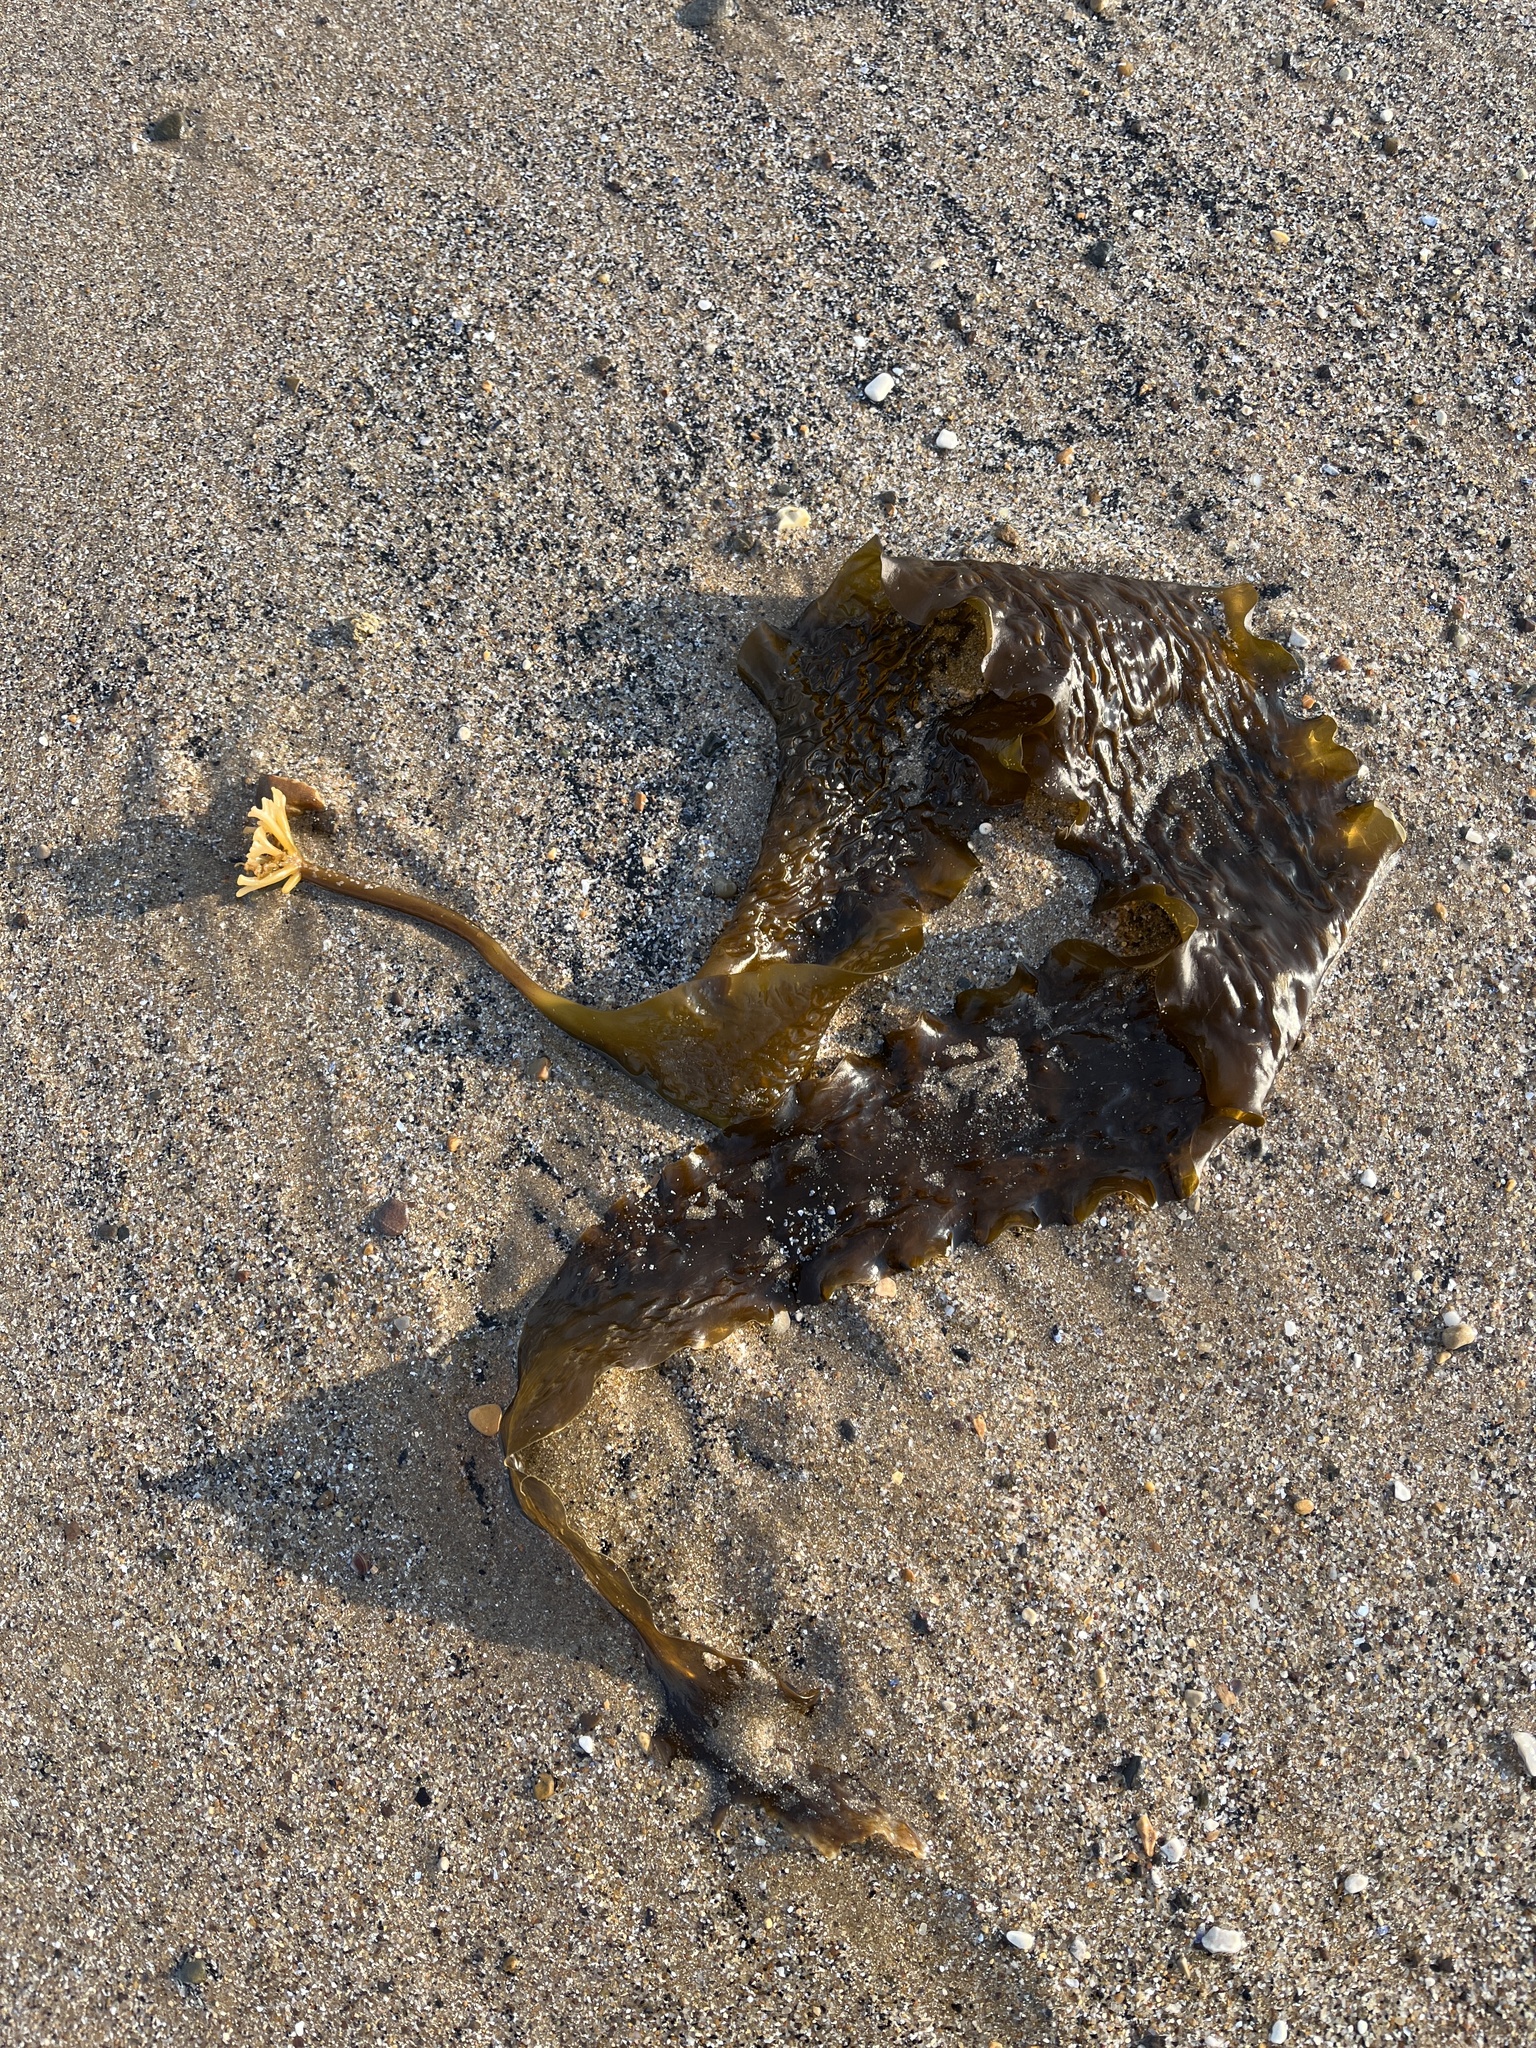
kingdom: Chromista
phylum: Ochrophyta
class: Phaeophyceae
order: Laminariales
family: Laminariaceae
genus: Saccharina
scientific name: Saccharina latissima
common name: Poor man's weather glass
